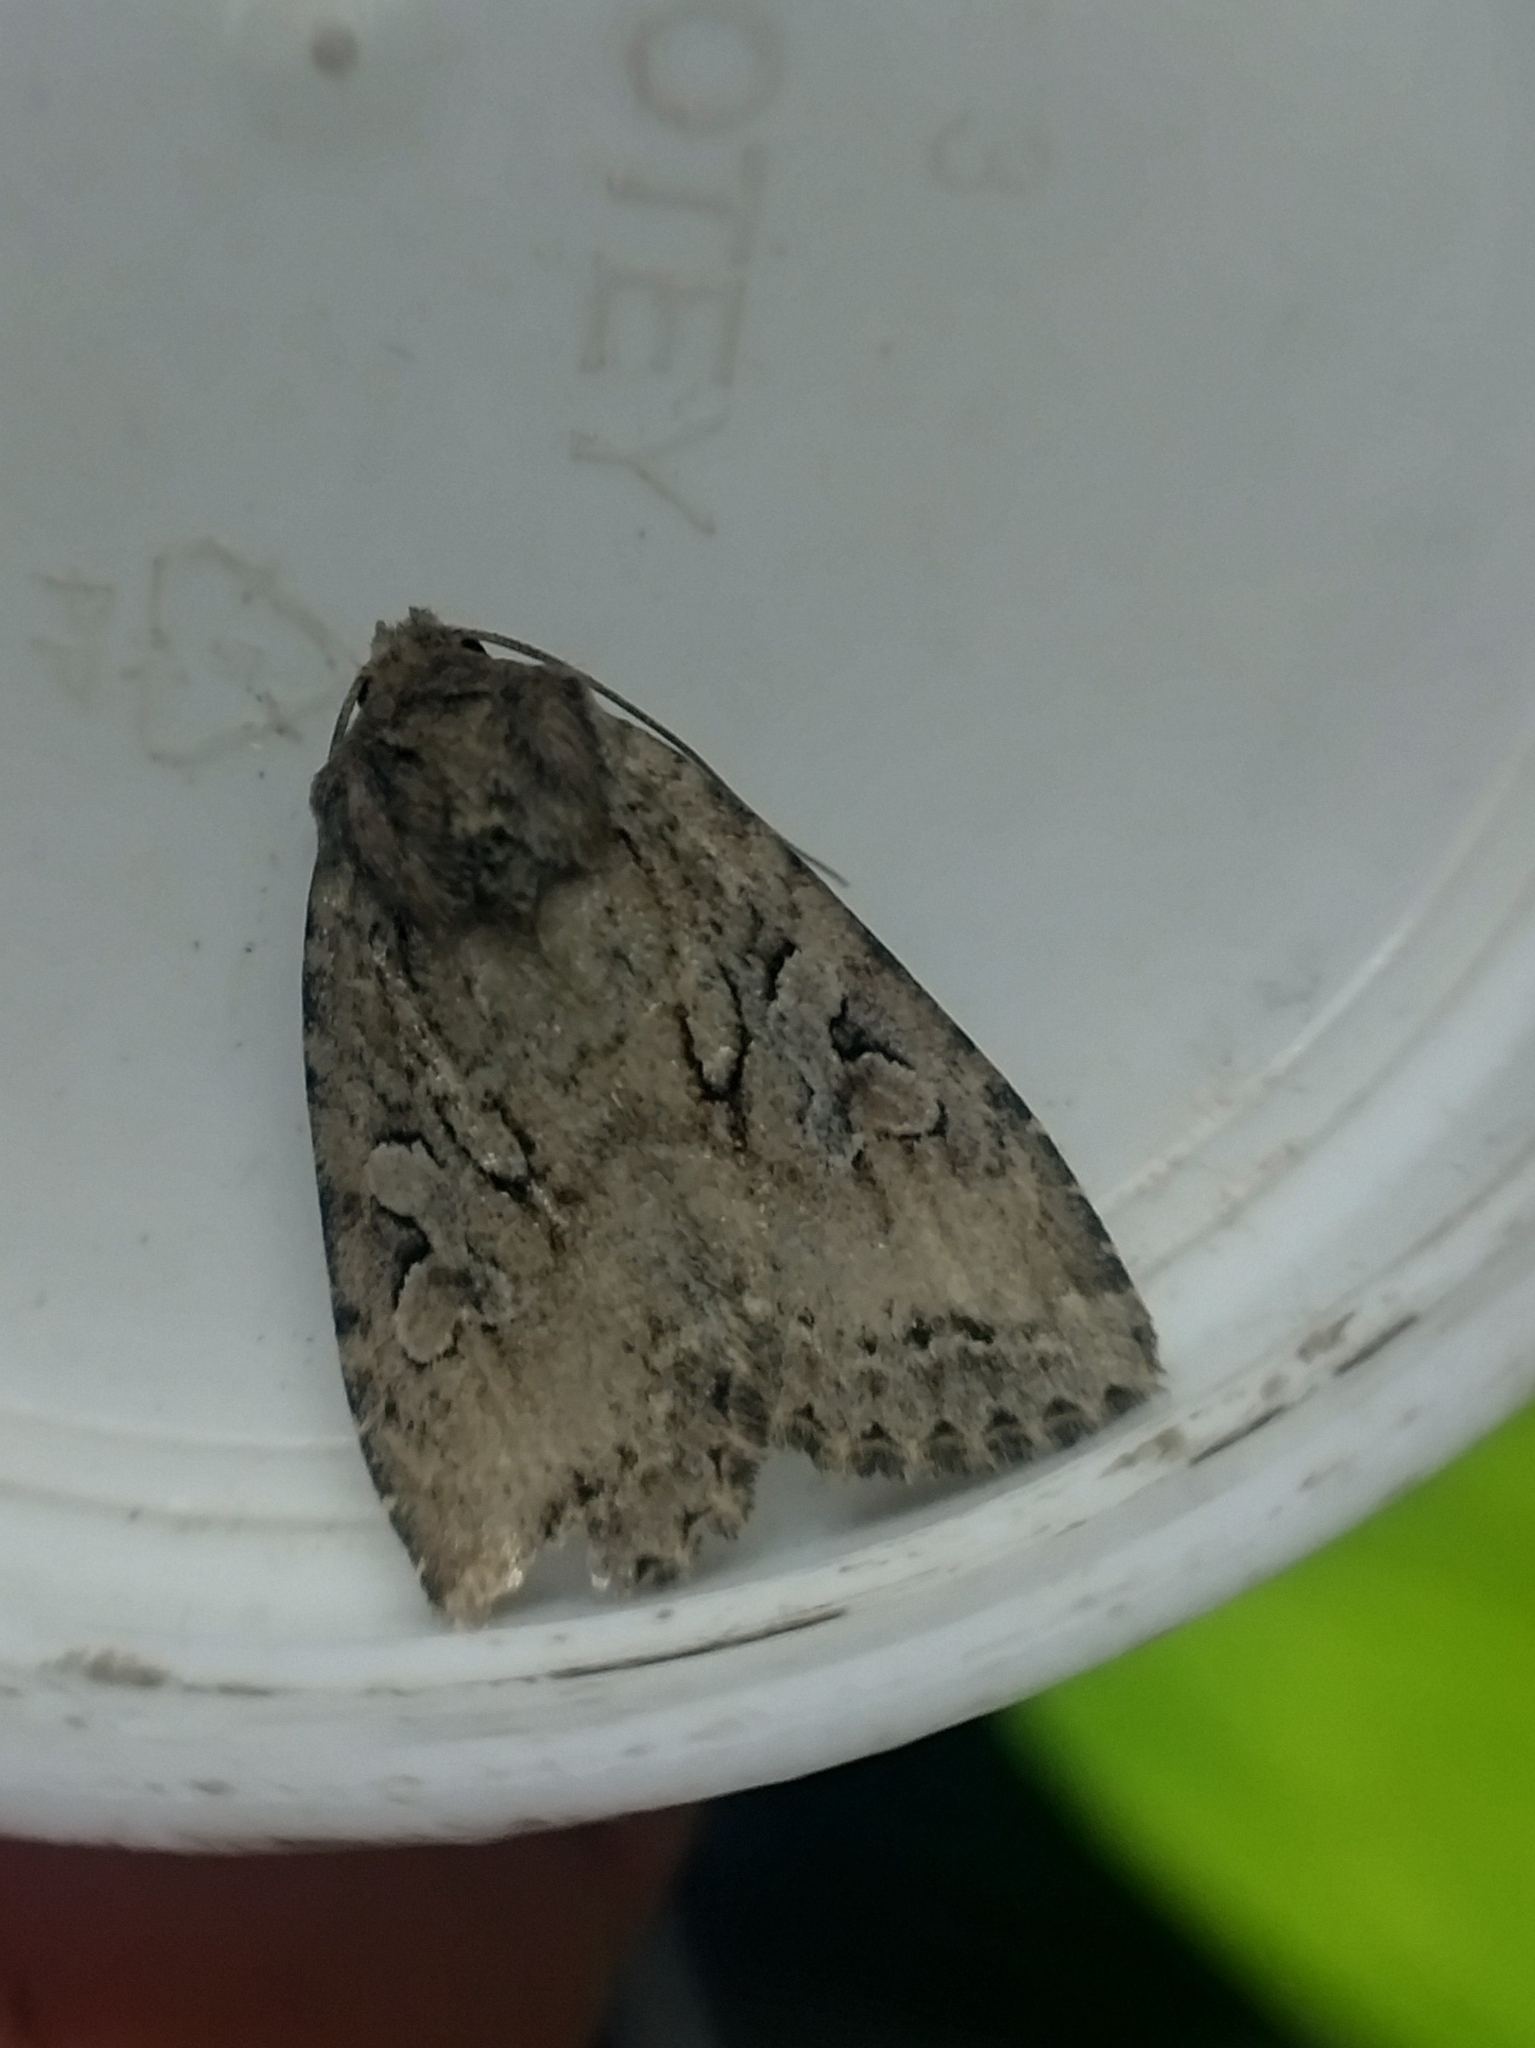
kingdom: Animalia
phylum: Arthropoda
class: Insecta
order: Lepidoptera
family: Noctuidae
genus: Apterogenum
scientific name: Apterogenum ypsillon
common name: Dingy shears
